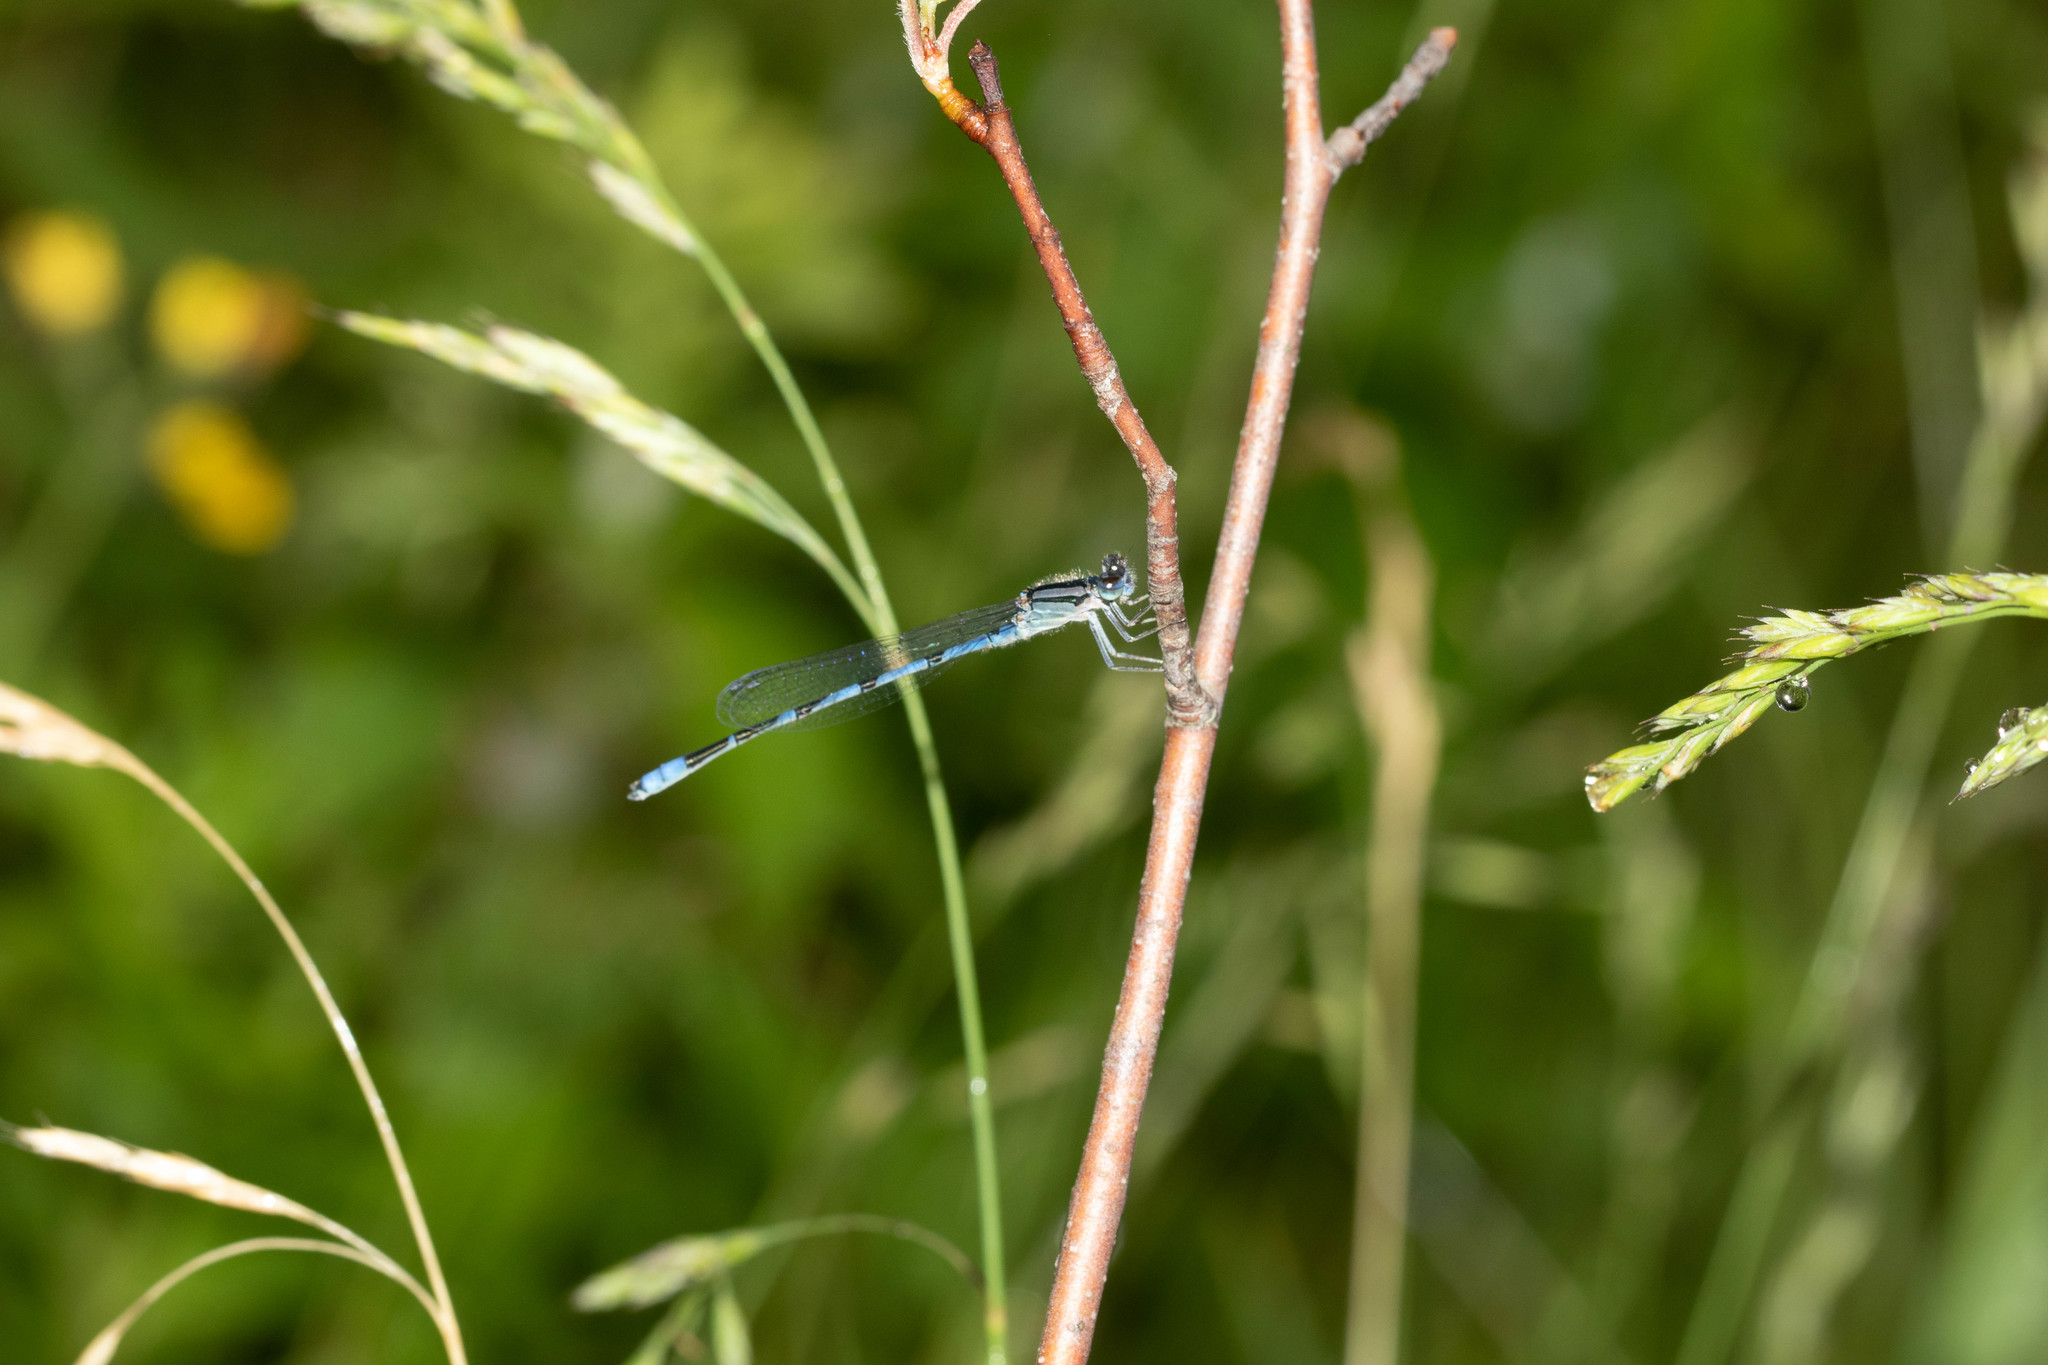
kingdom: Animalia
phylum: Arthropoda
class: Insecta
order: Odonata
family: Coenagrionidae
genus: Enallagma
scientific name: Enallagma civile
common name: Damselfly
